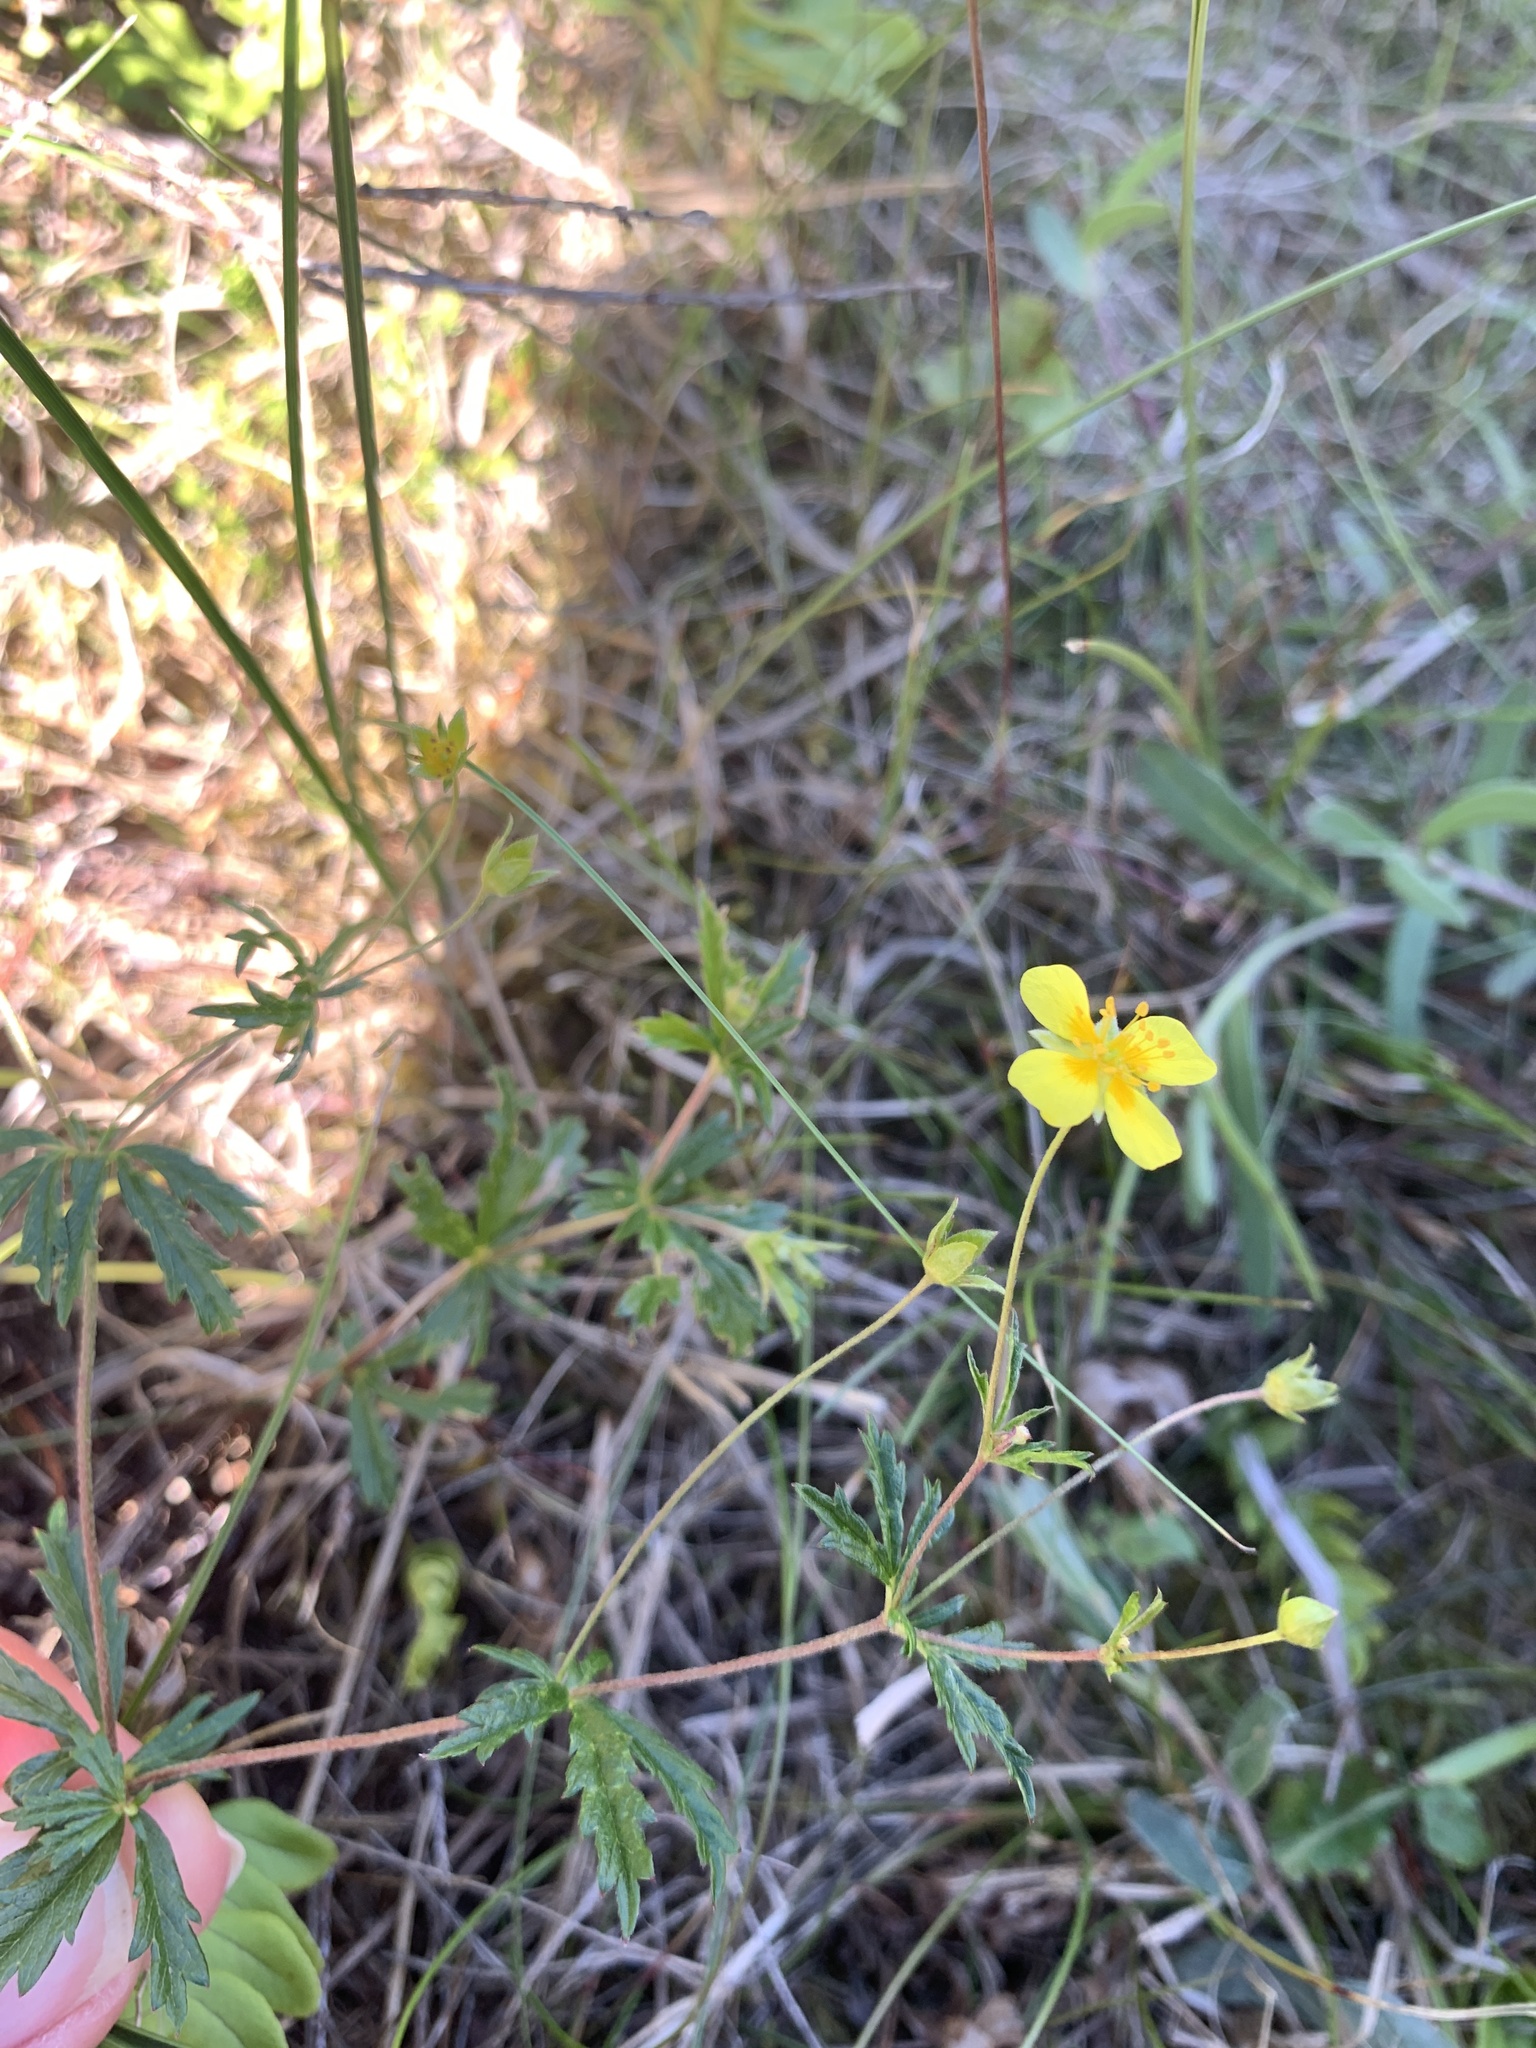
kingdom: Plantae
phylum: Tracheophyta
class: Magnoliopsida
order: Rosales
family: Rosaceae
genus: Potentilla
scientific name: Potentilla erecta
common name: Tormentil
